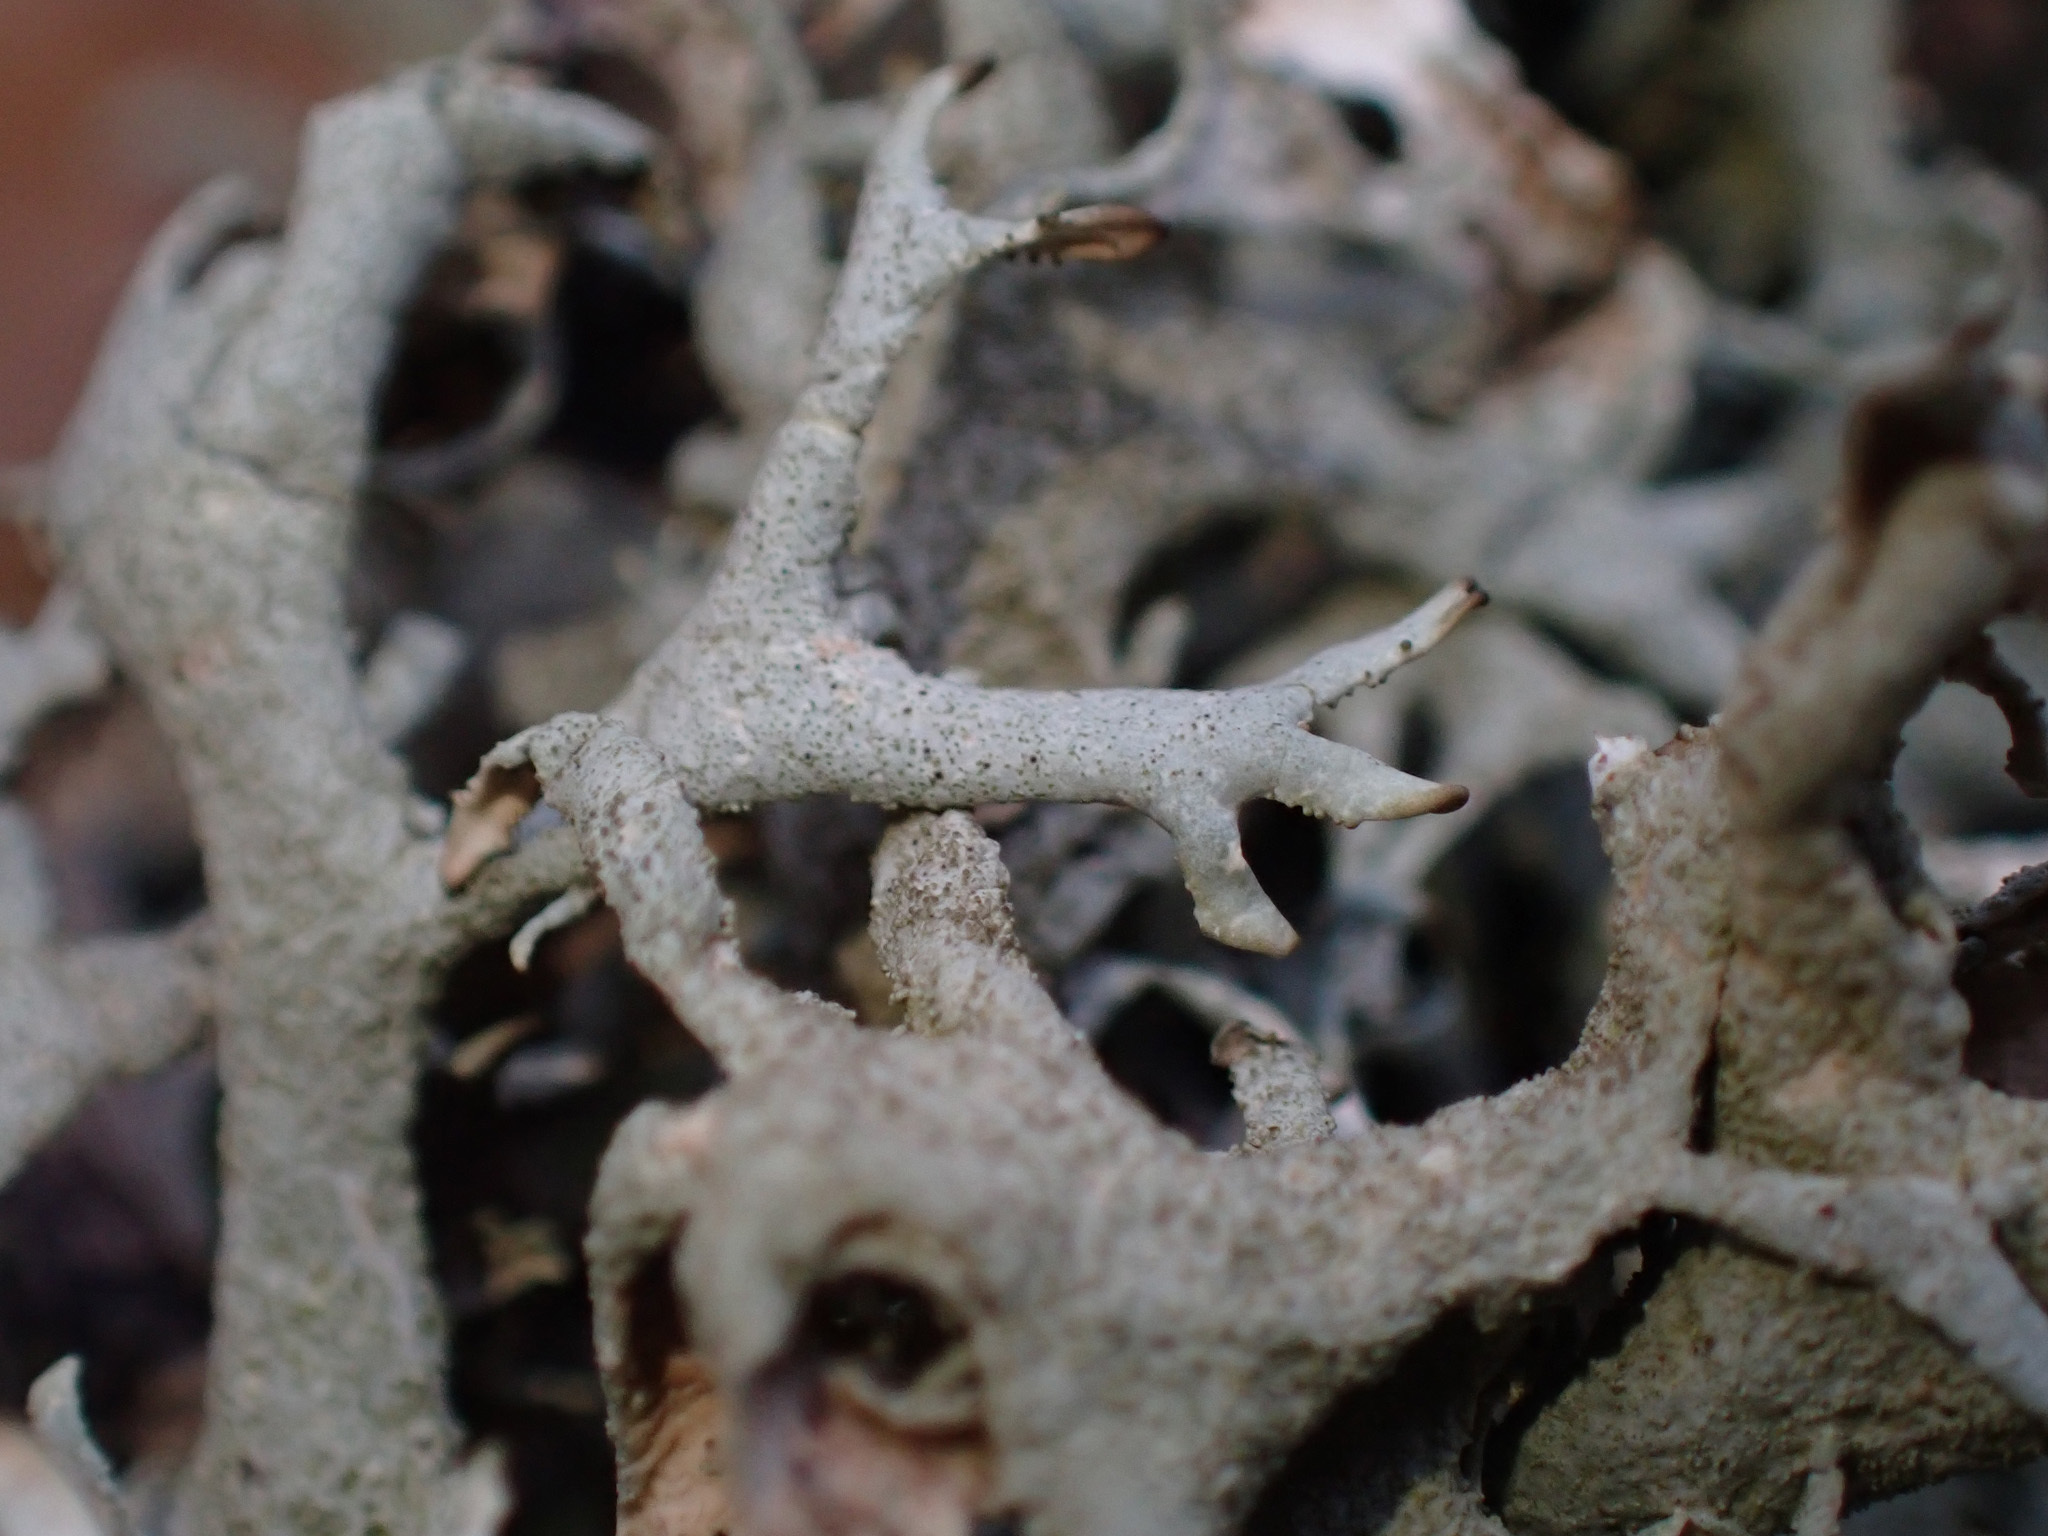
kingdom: Fungi
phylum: Ascomycota
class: Lecanoromycetes
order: Lecanorales
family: Parmeliaceae
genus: Pseudevernia
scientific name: Pseudevernia furfuracea
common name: Tree moss
